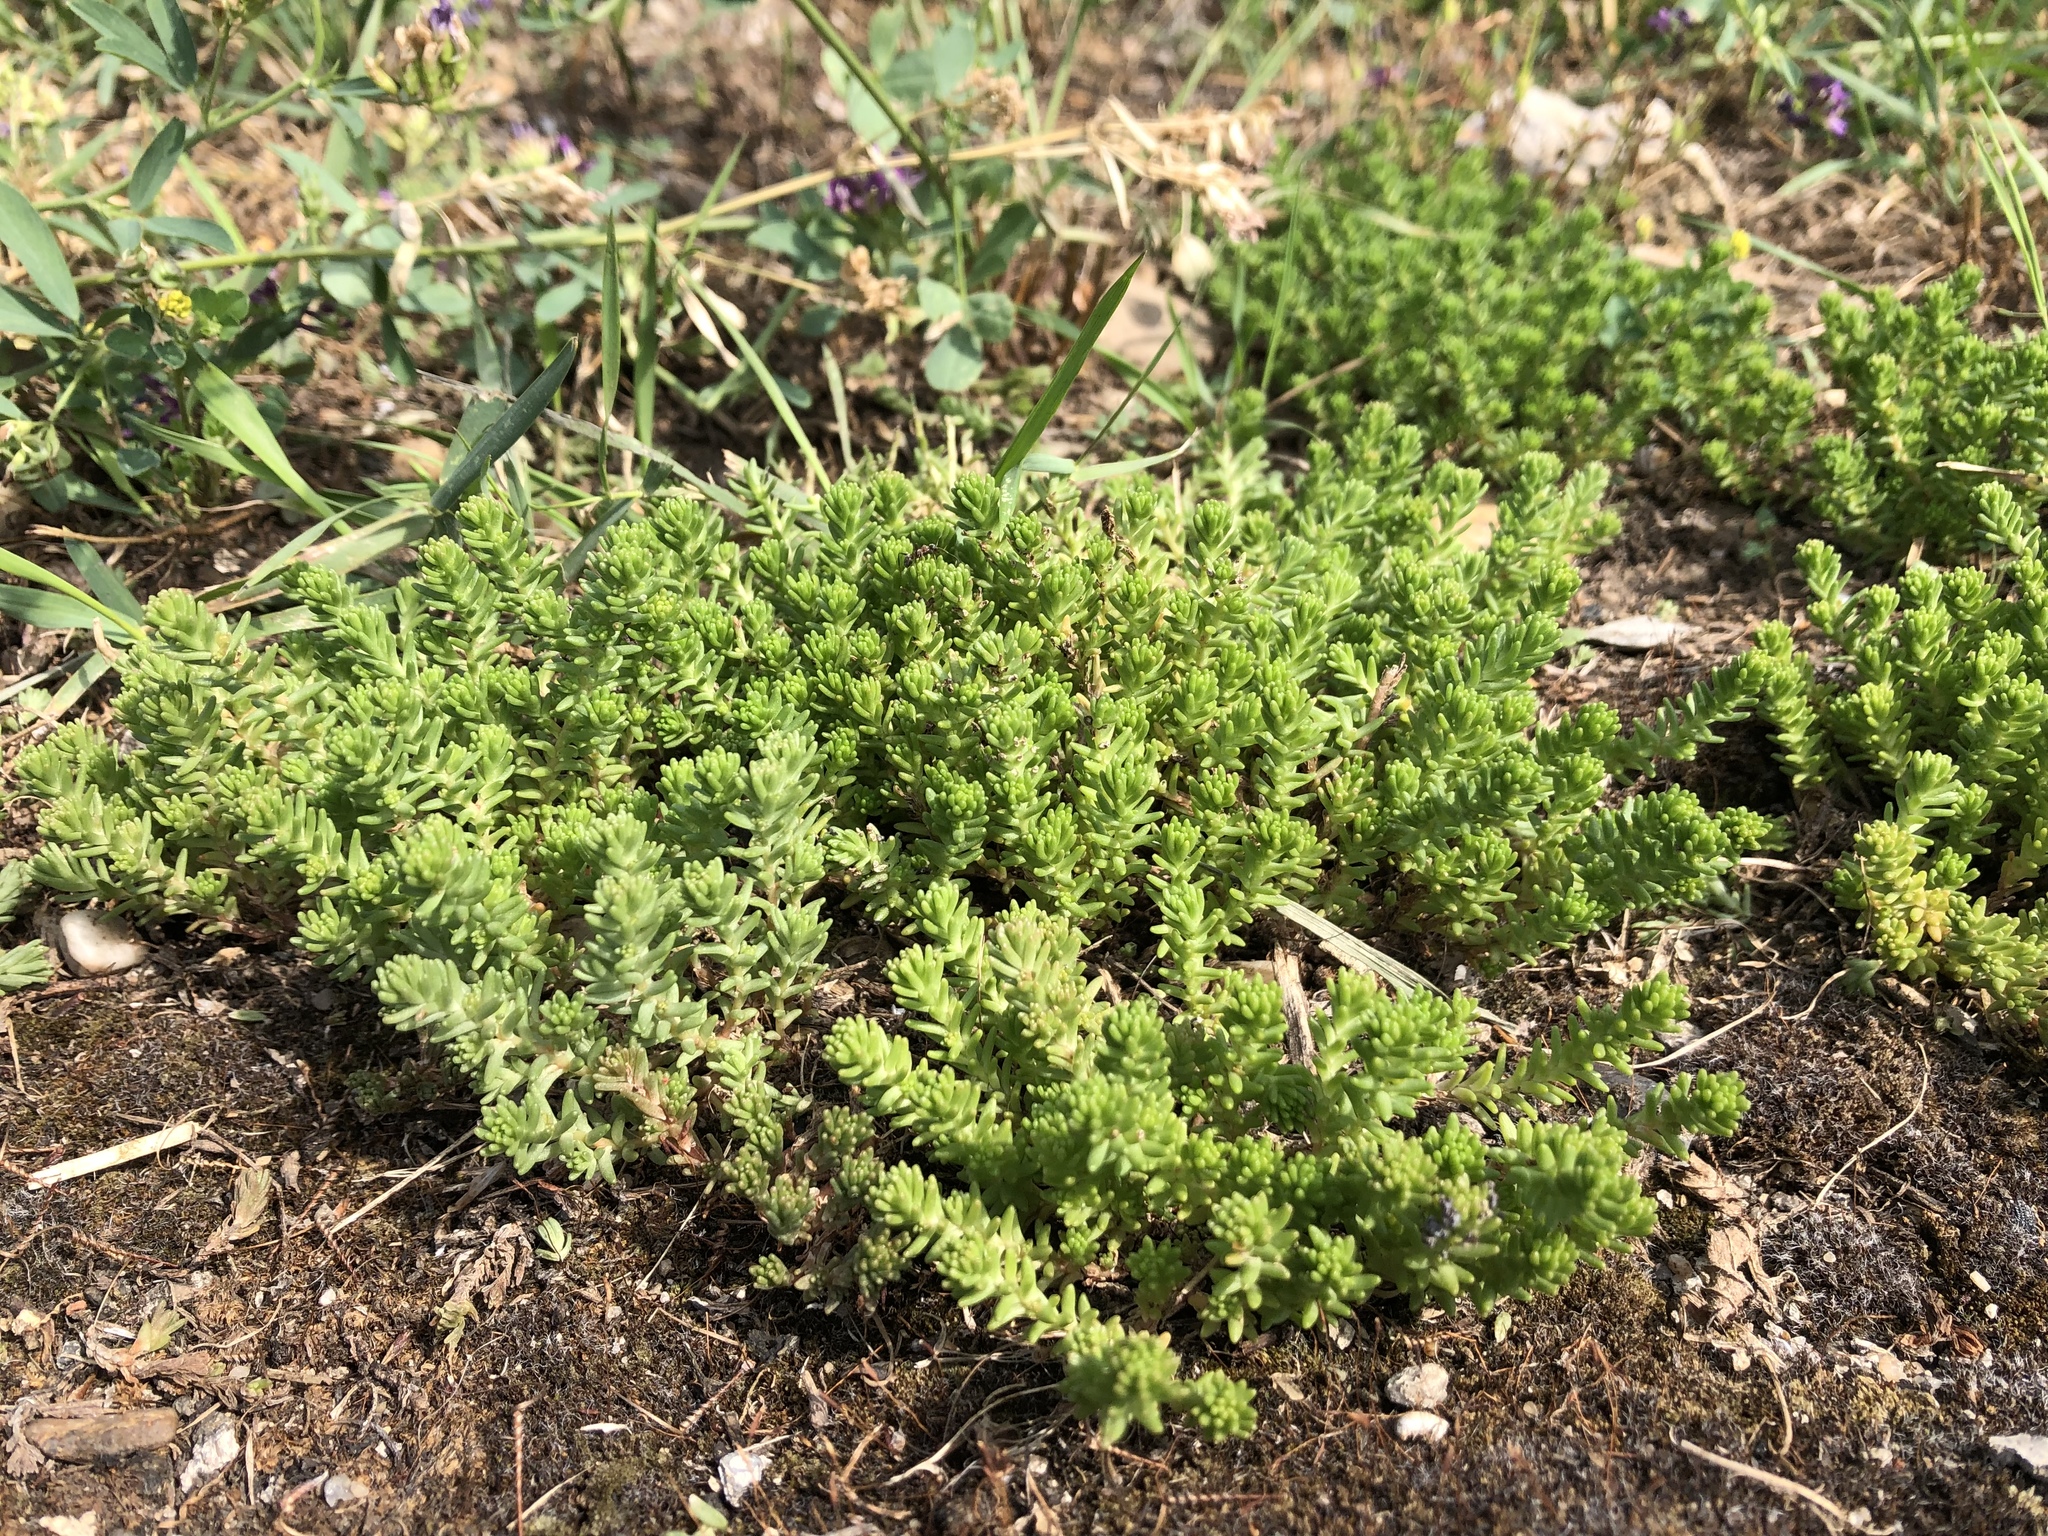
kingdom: Plantae
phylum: Tracheophyta
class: Magnoliopsida
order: Saxifragales
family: Crassulaceae
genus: Sedum
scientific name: Sedum sexangulare
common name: Tasteless stonecrop
